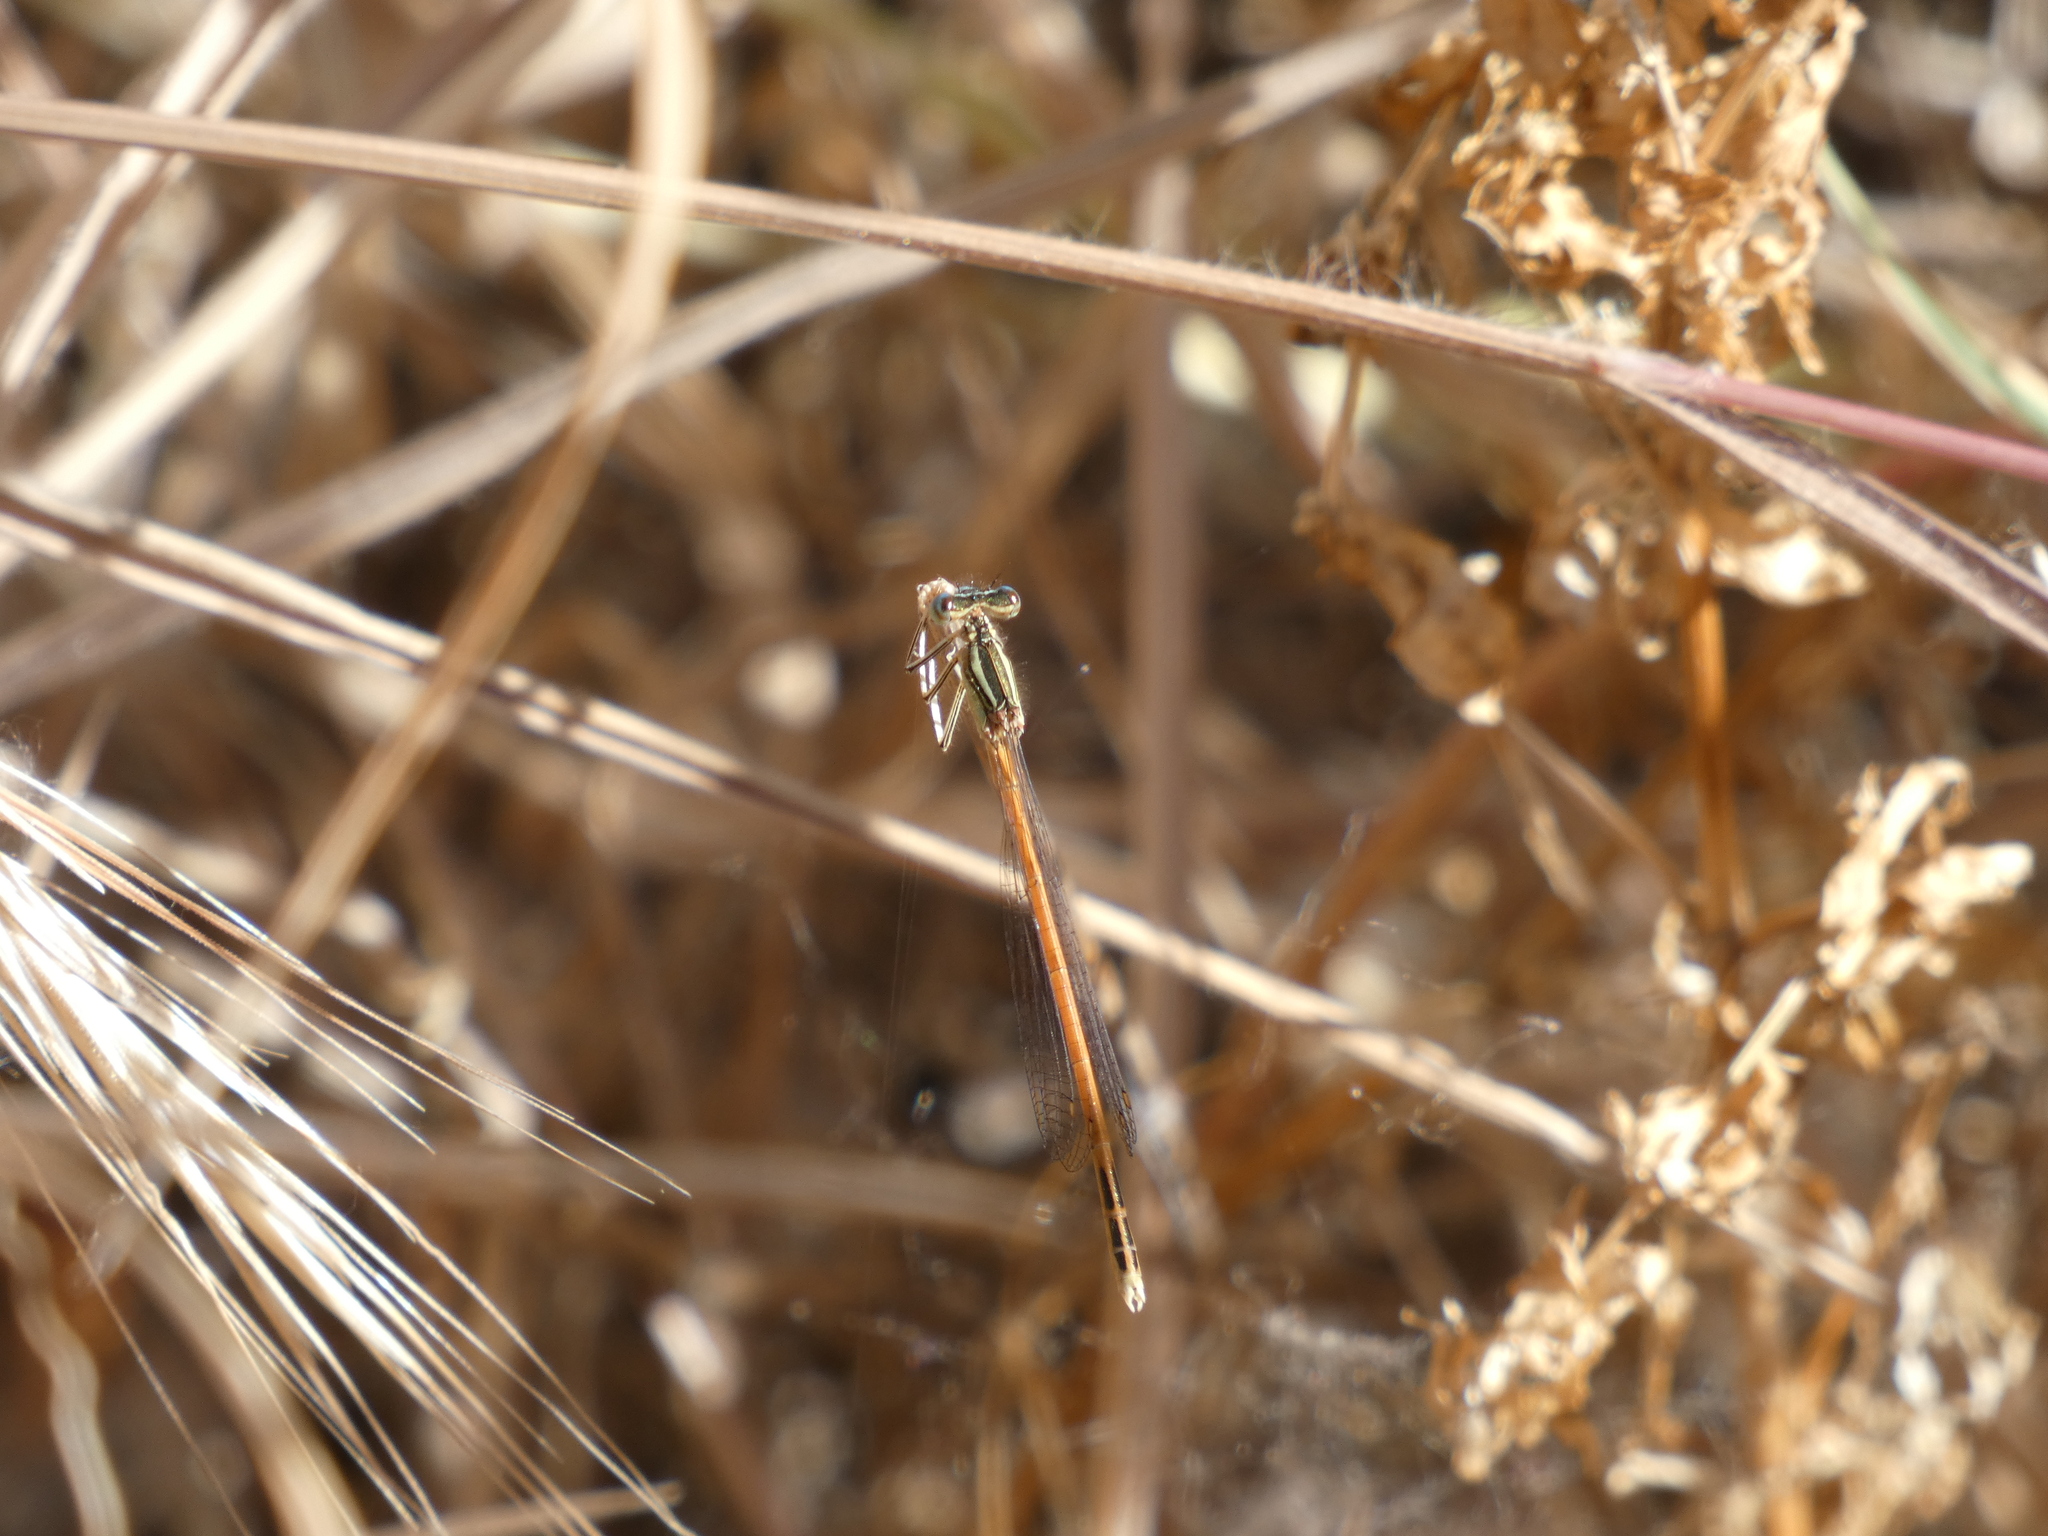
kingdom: Animalia
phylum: Arthropoda
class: Insecta
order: Odonata
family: Platycnemididae
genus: Platycnemis
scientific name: Platycnemis acutipennis
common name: Orange featherleg
